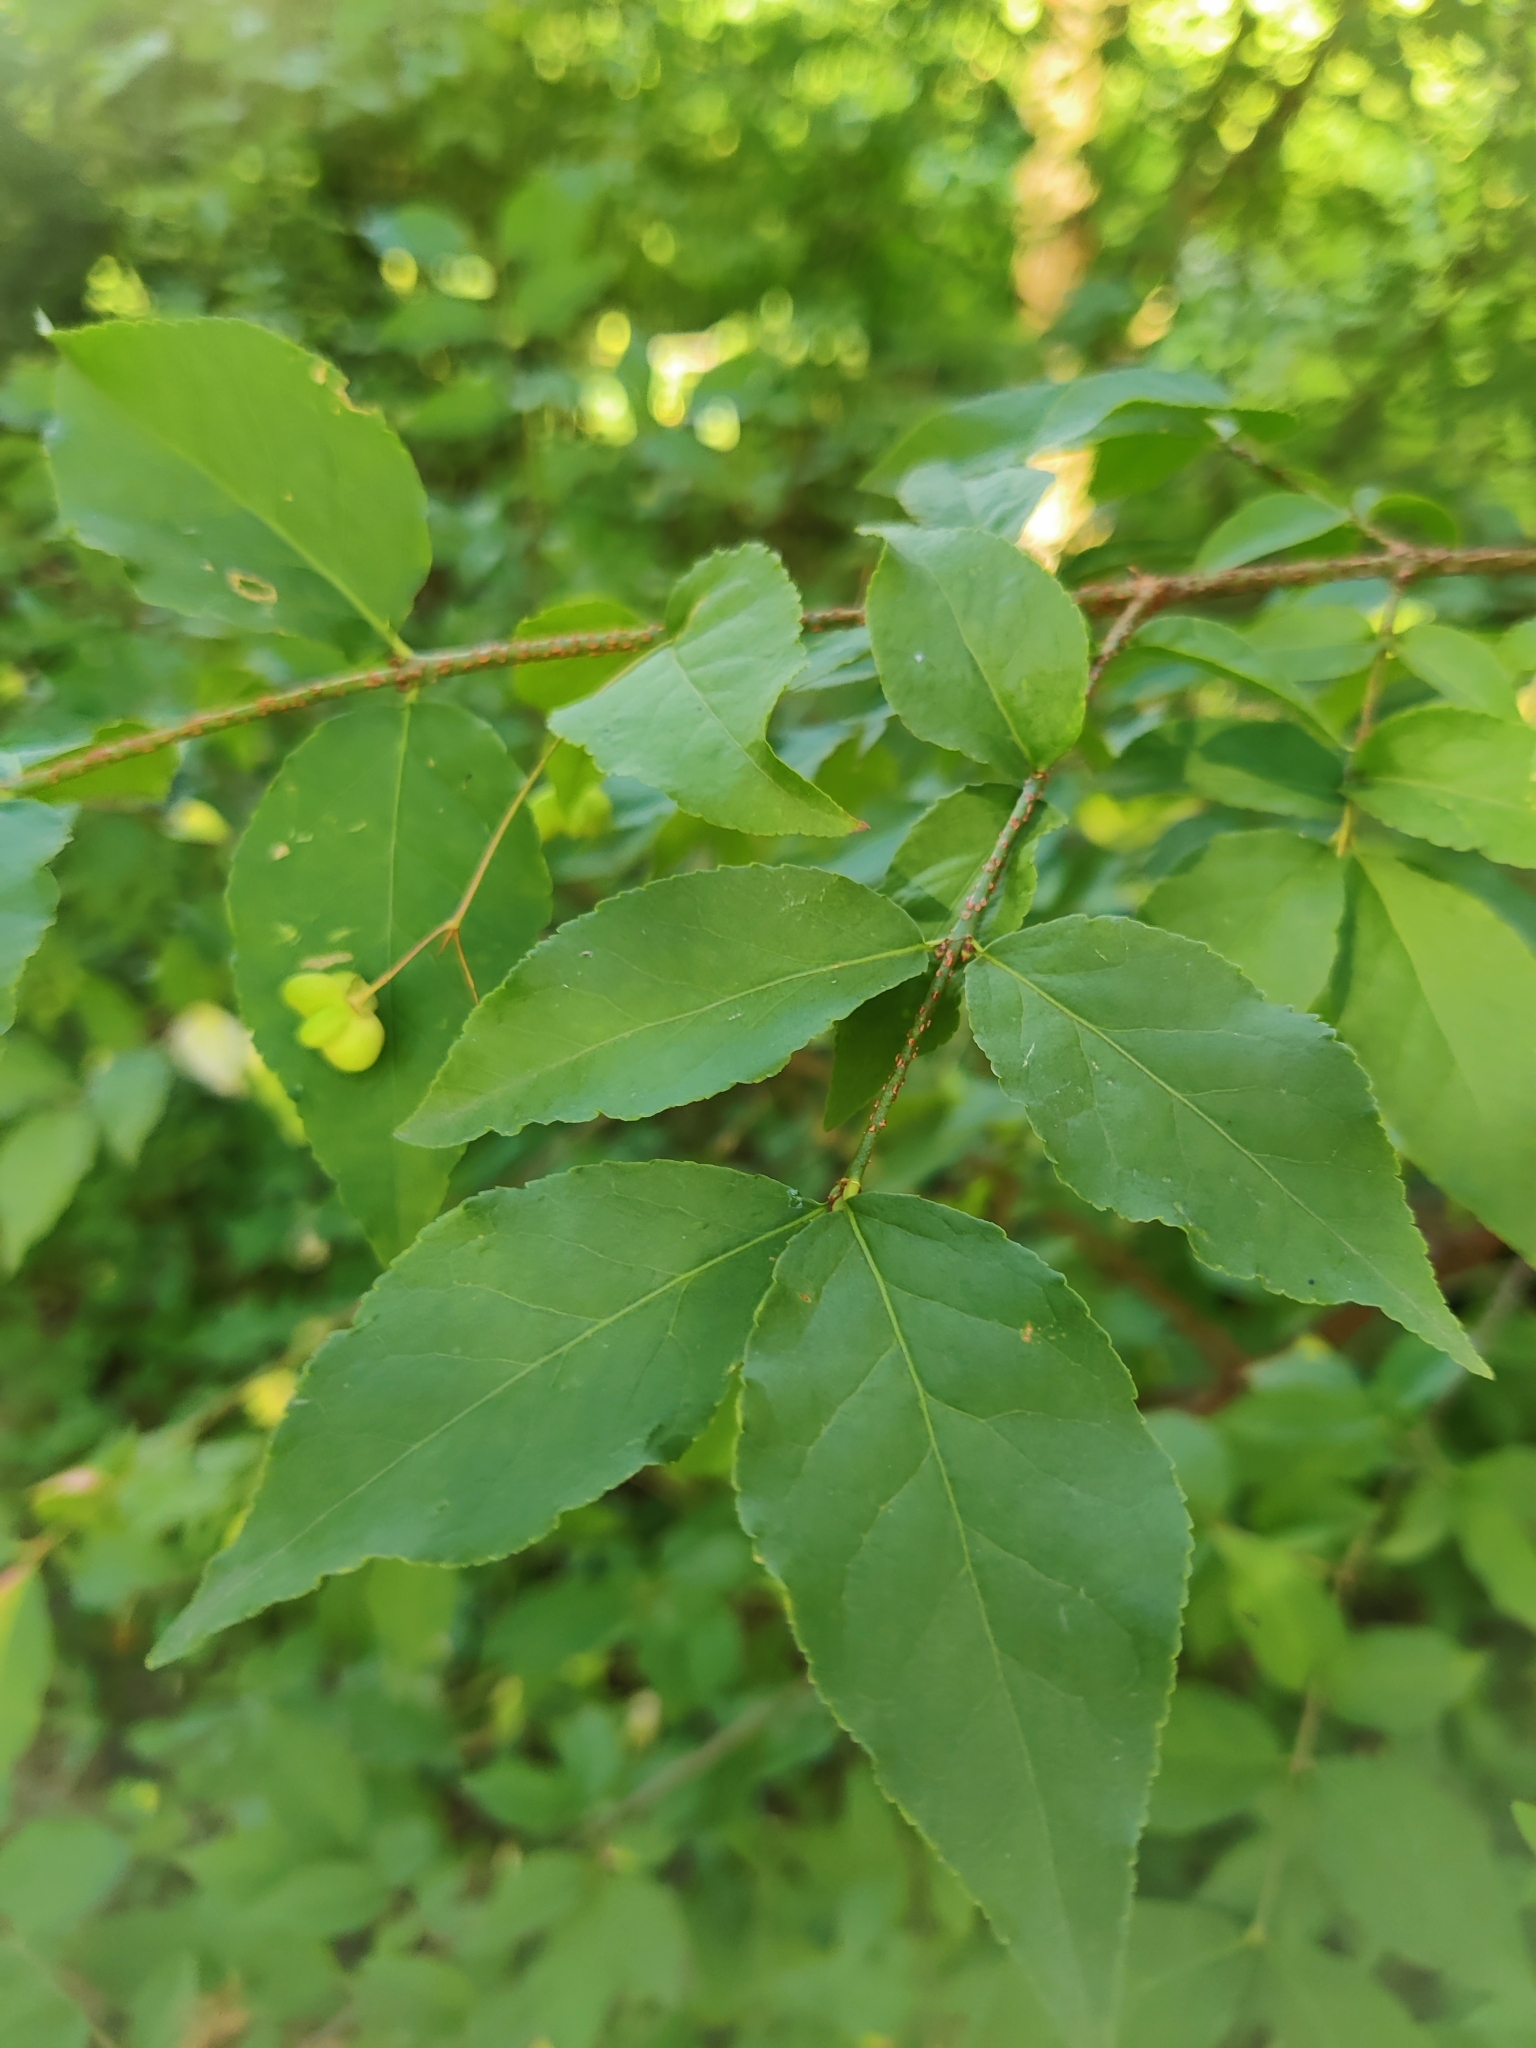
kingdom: Plantae
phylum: Tracheophyta
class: Magnoliopsida
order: Celastrales
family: Celastraceae
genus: Euonymus
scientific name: Euonymus verrucosus
